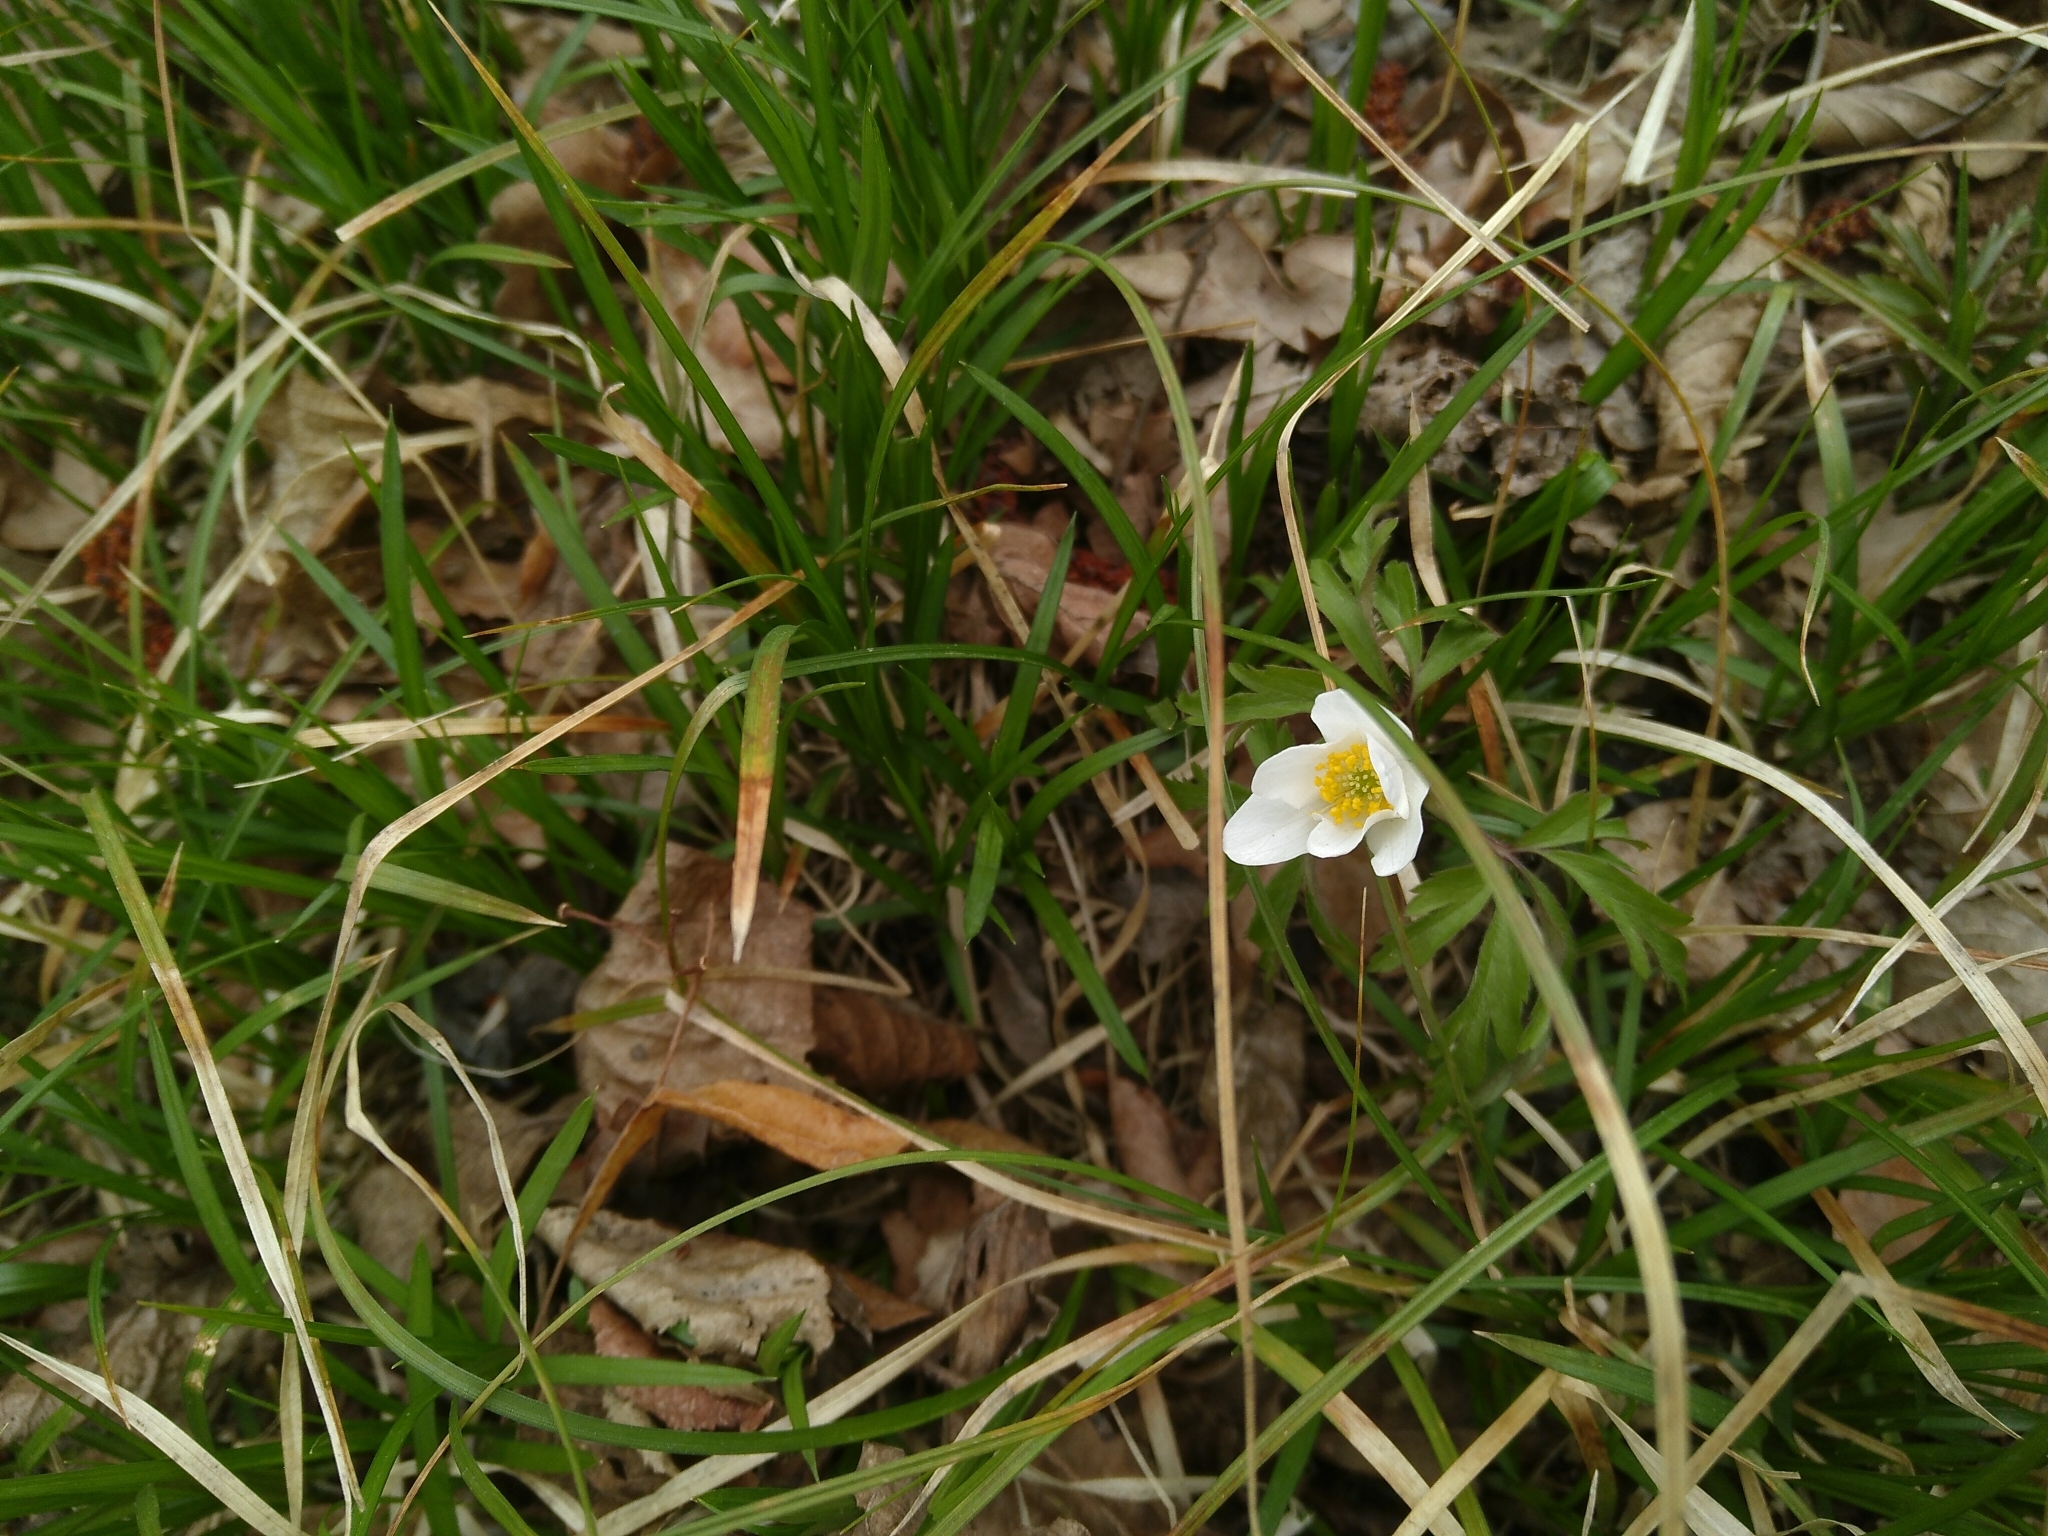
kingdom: Plantae
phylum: Tracheophyta
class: Magnoliopsida
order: Ranunculales
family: Ranunculaceae
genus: Anemone
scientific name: Anemone nemorosa
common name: Wood anemone
